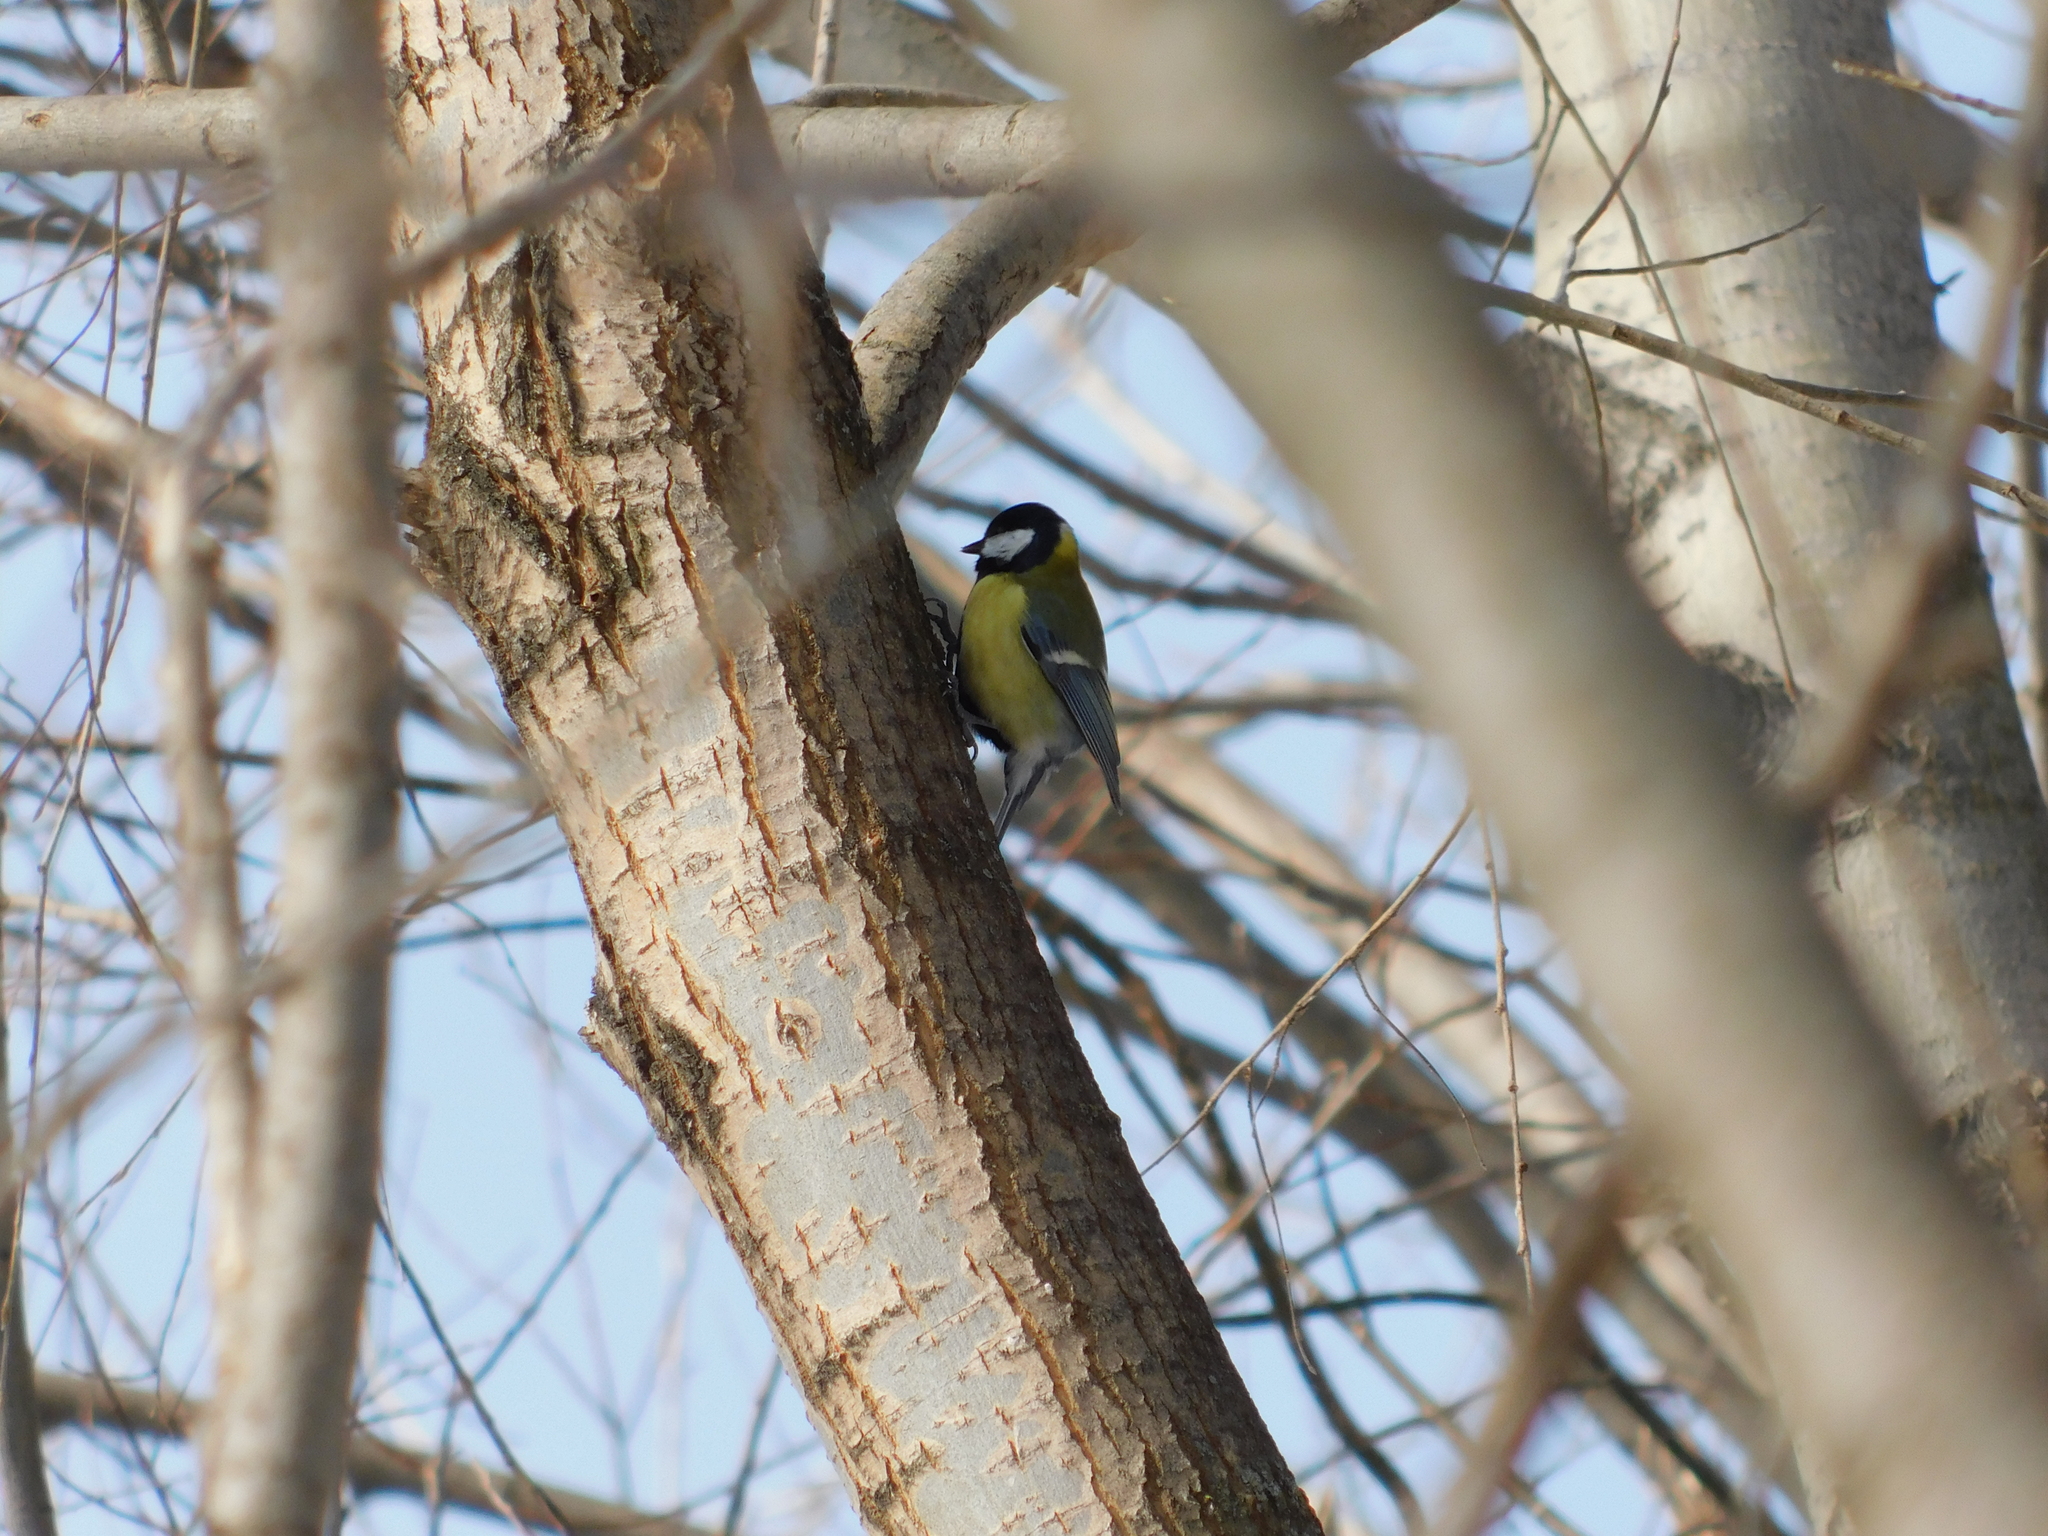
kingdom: Animalia
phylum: Chordata
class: Aves
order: Passeriformes
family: Paridae
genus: Parus
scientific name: Parus major
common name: Great tit
